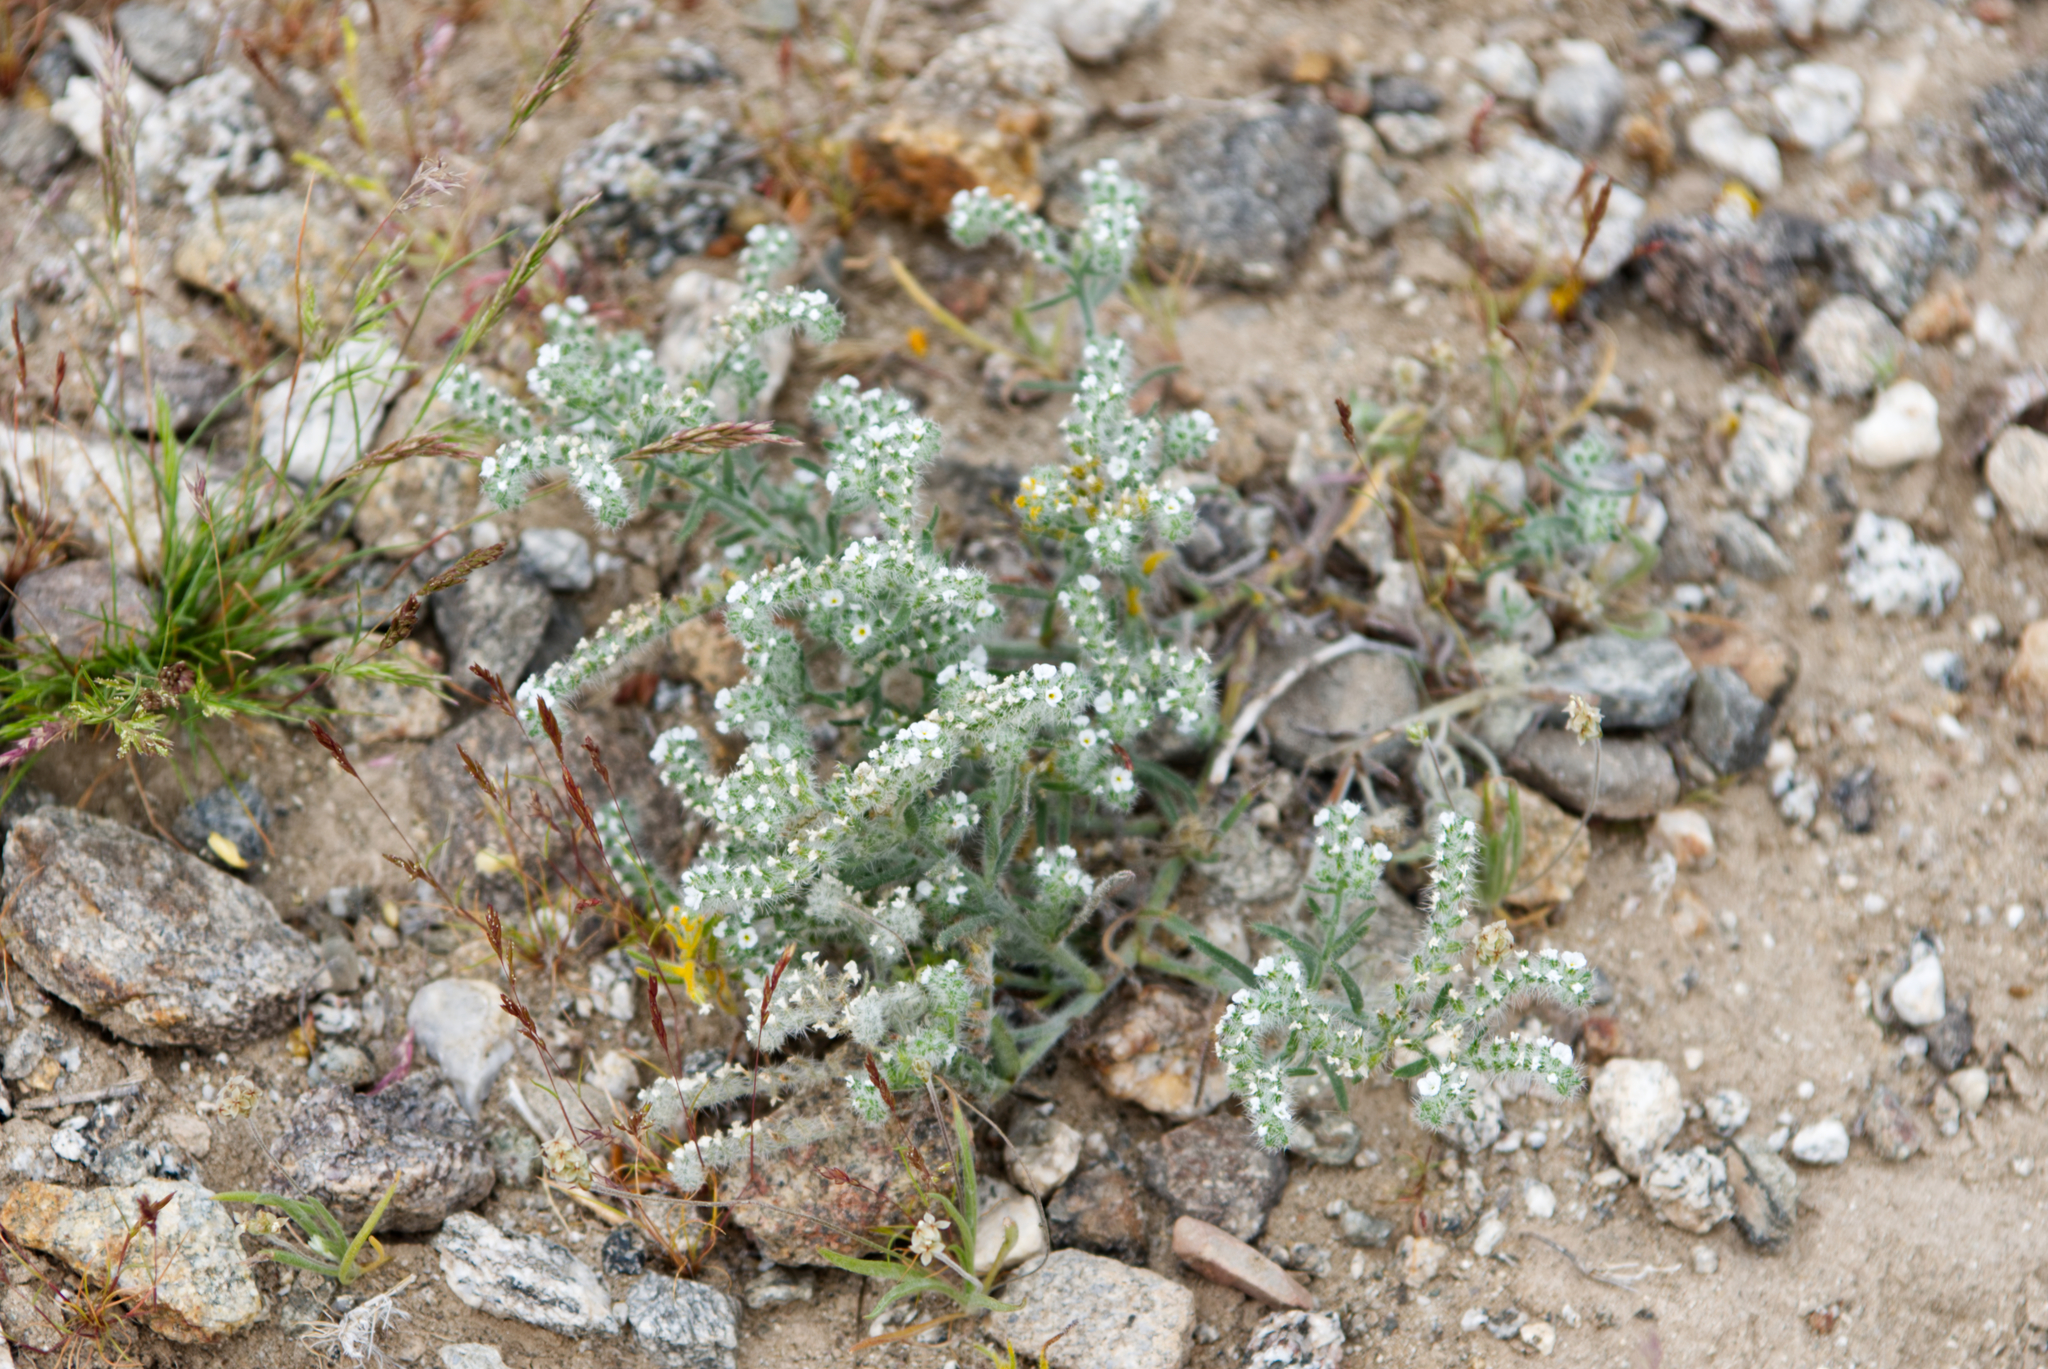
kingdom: Plantae
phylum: Tracheophyta
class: Magnoliopsida
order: Boraginales
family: Boraginaceae
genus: Johnstonella
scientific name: Johnstonella angustifolia
